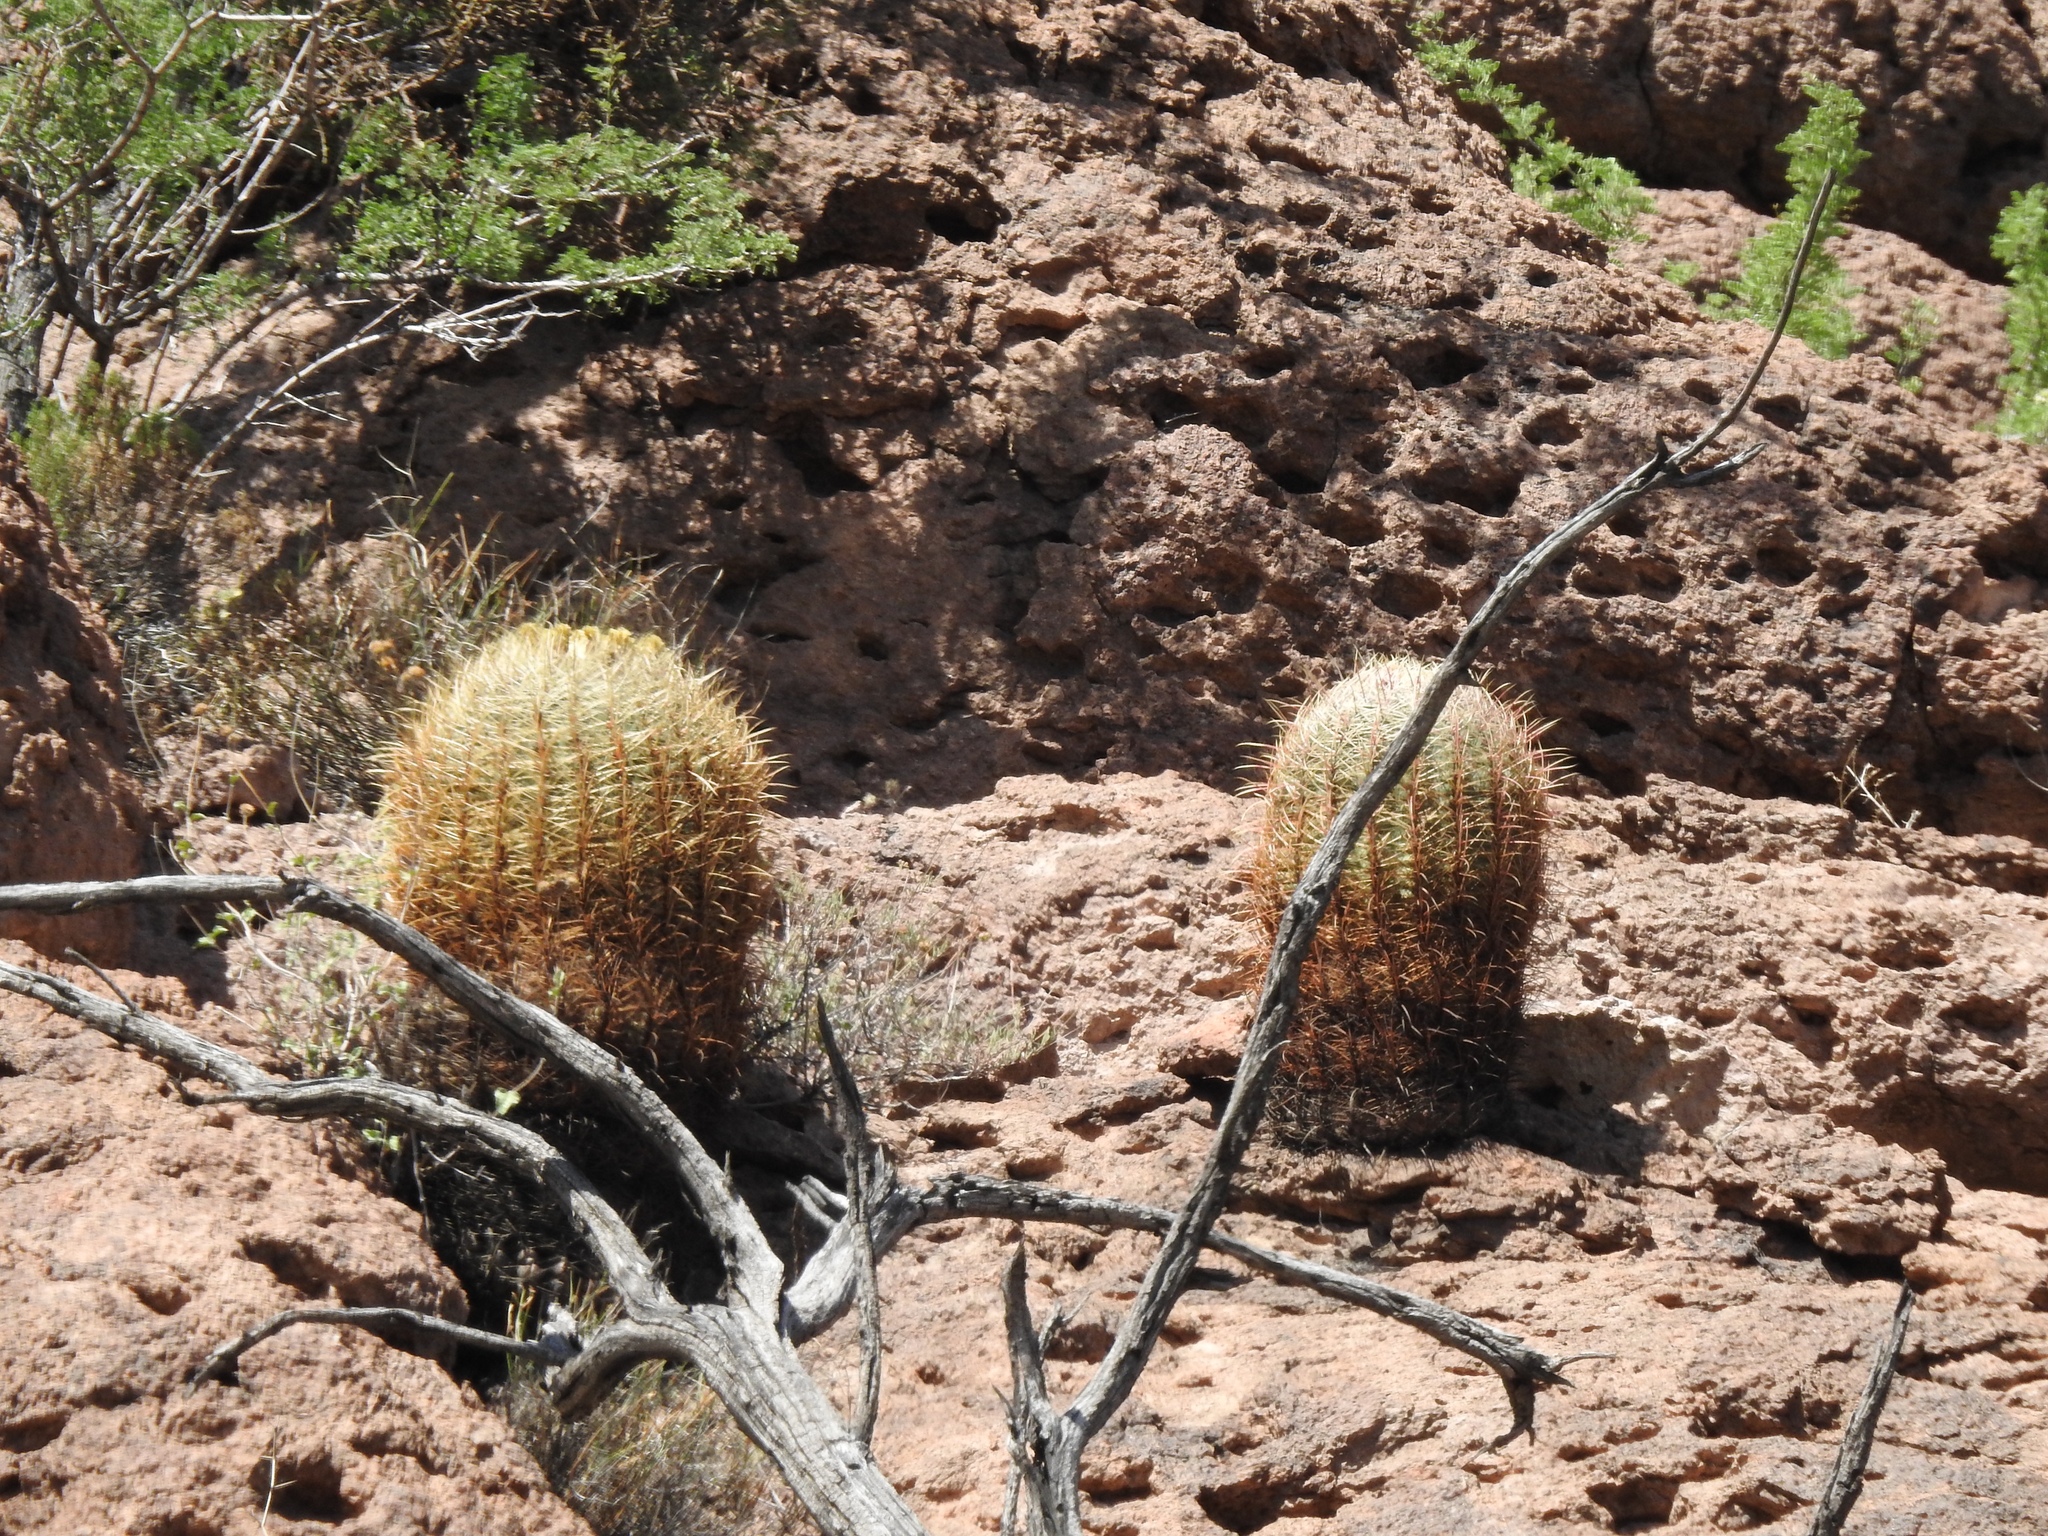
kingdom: Plantae
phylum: Tracheophyta
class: Magnoliopsida
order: Caryophyllales
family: Cactaceae
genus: Ferocactus
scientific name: Ferocactus cylindraceus
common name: California barrel cactus
